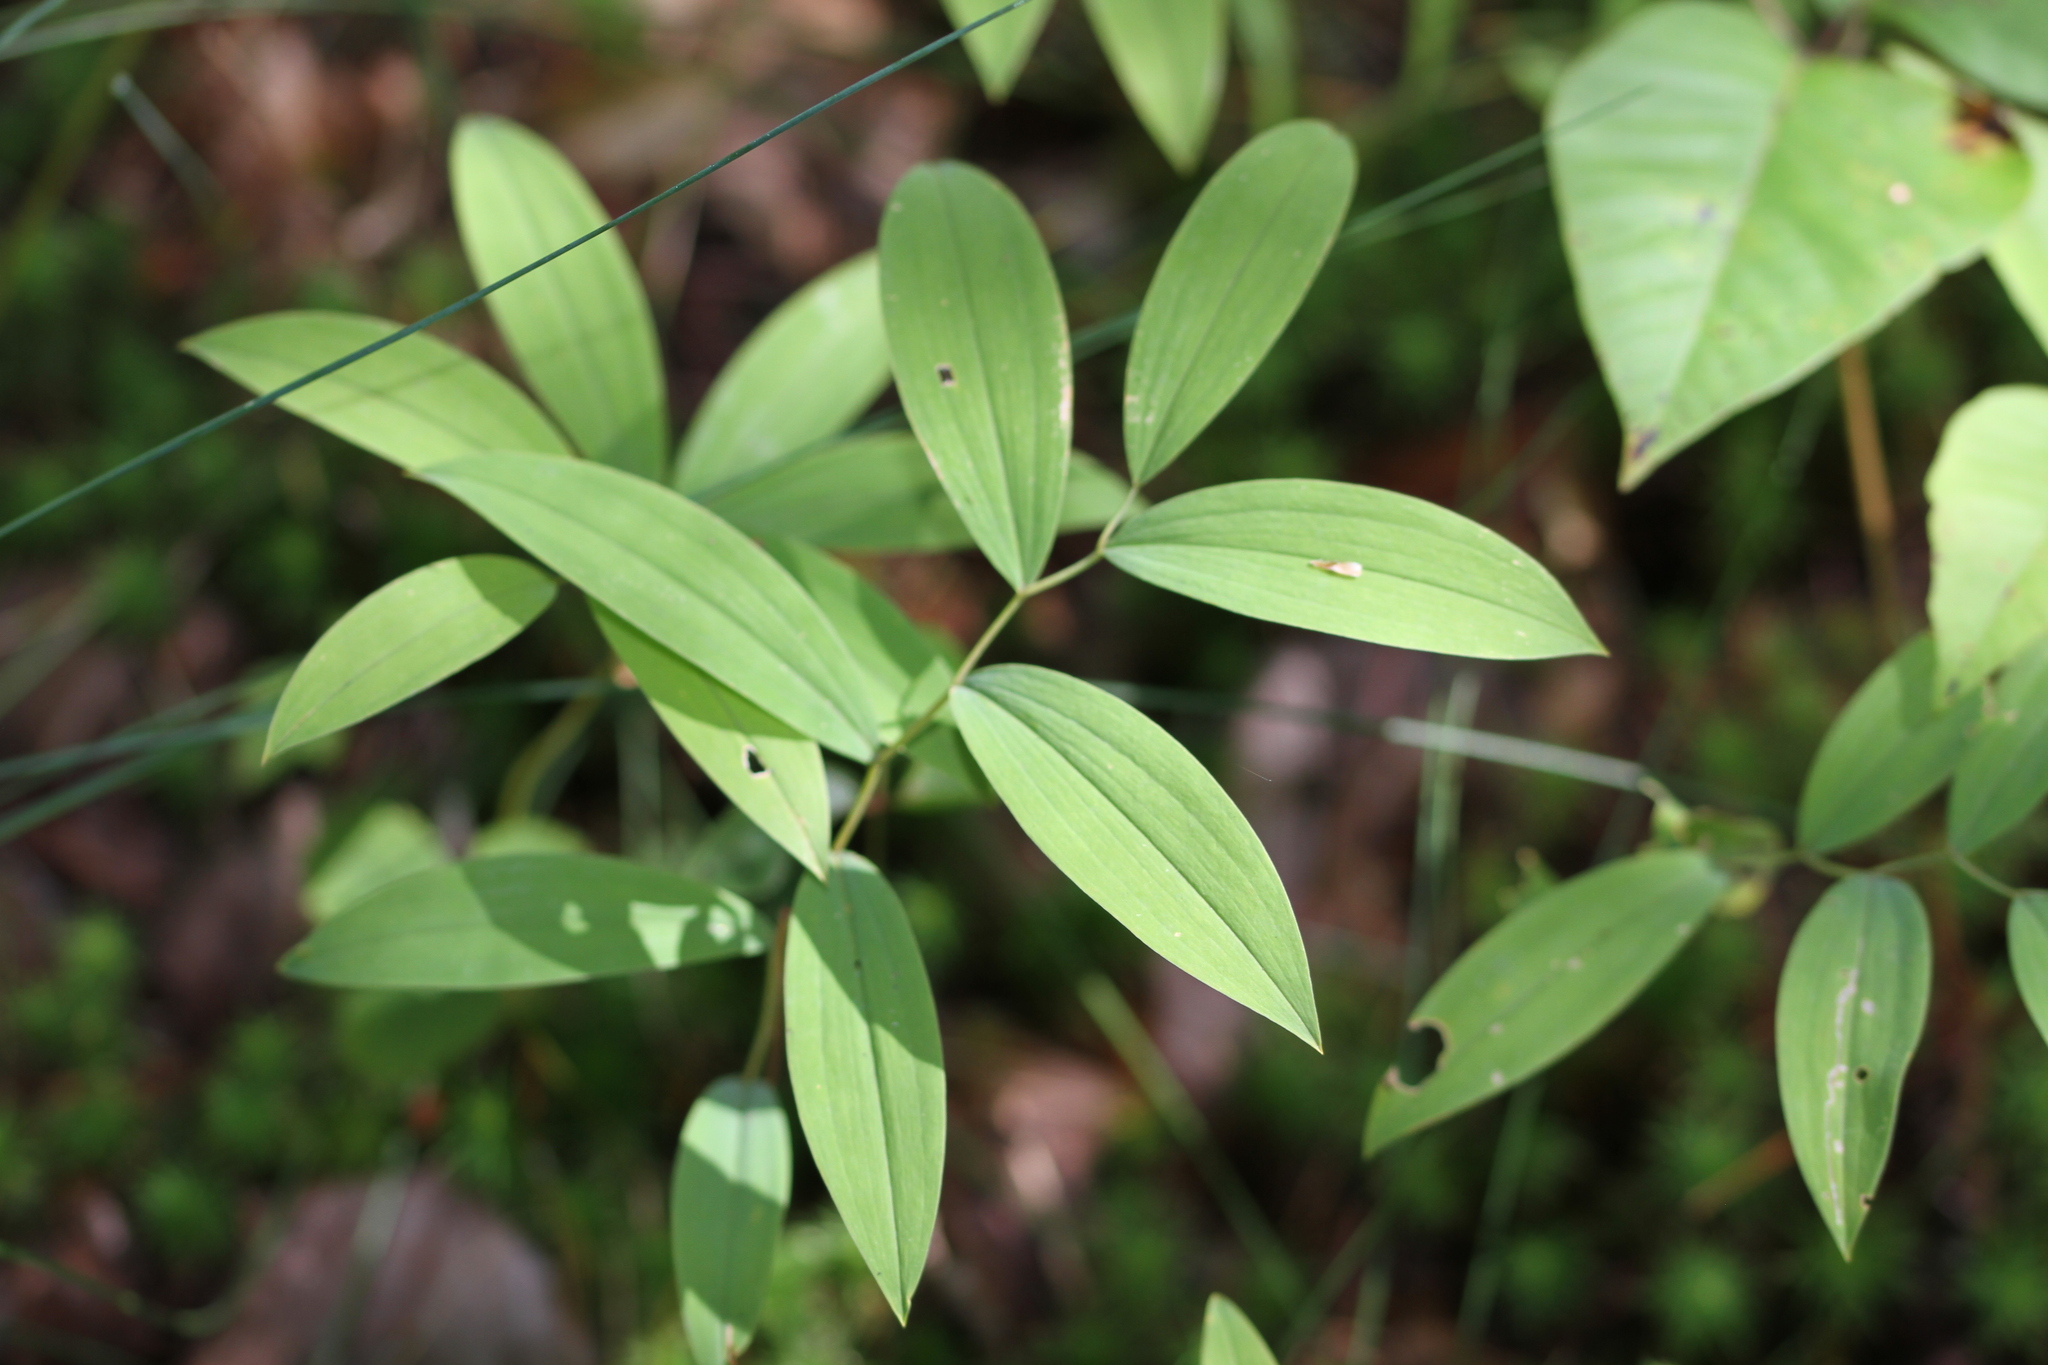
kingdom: Plantae
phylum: Tracheophyta
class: Liliopsida
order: Liliales
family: Colchicaceae
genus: Uvularia
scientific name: Uvularia sessilifolia
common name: Straw-lily
